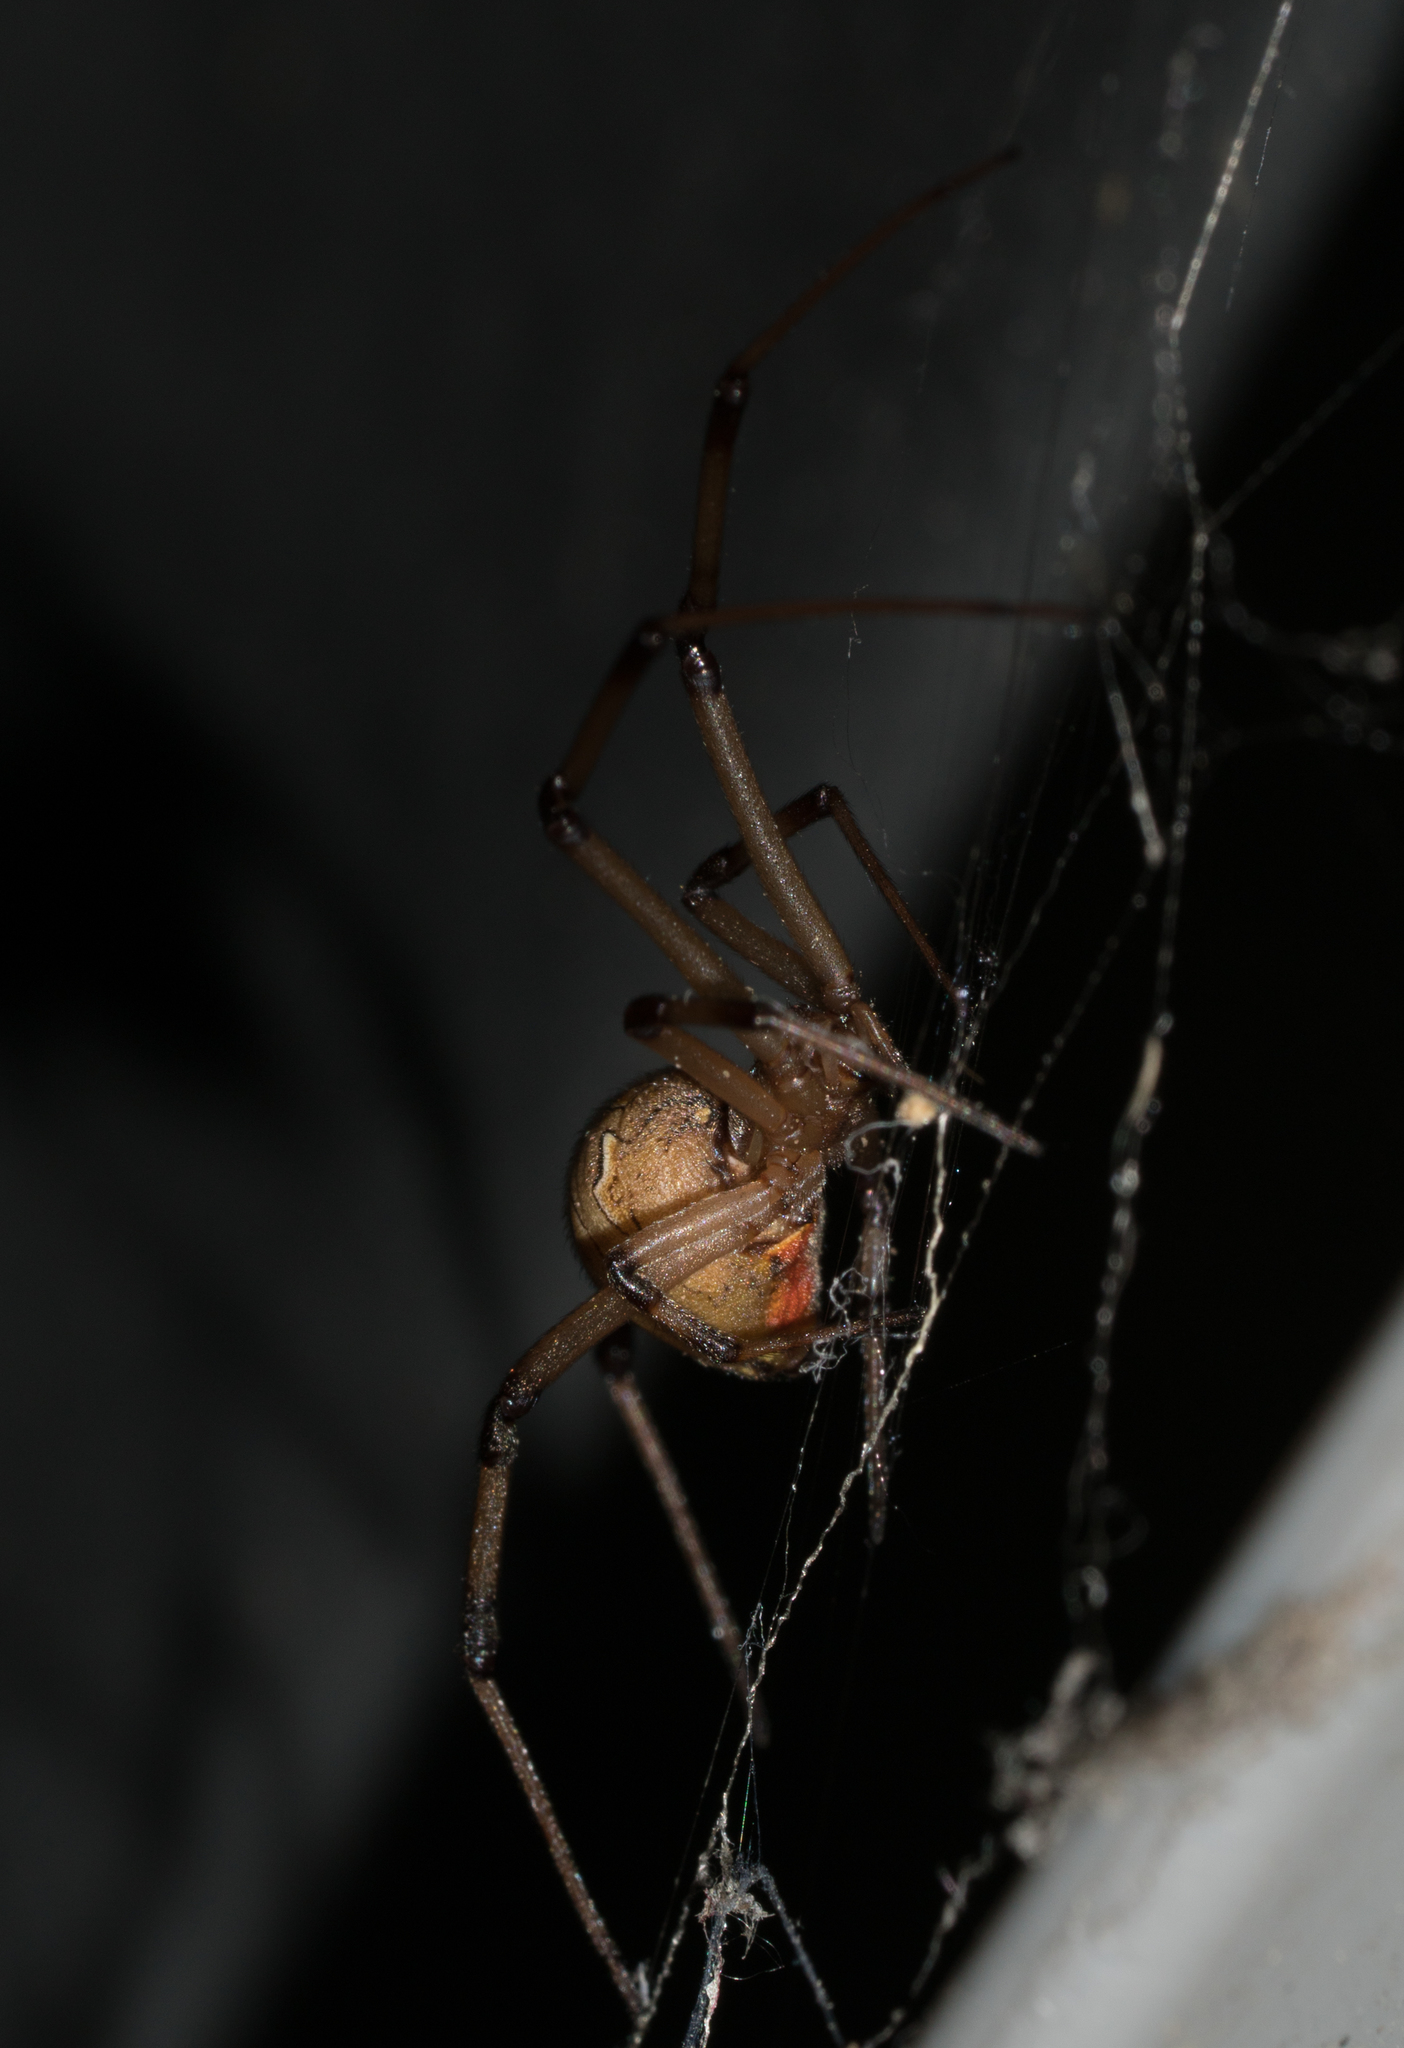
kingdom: Animalia
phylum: Arthropoda
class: Arachnida
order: Araneae
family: Theridiidae
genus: Latrodectus
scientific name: Latrodectus geometricus
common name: Brown widow spider
